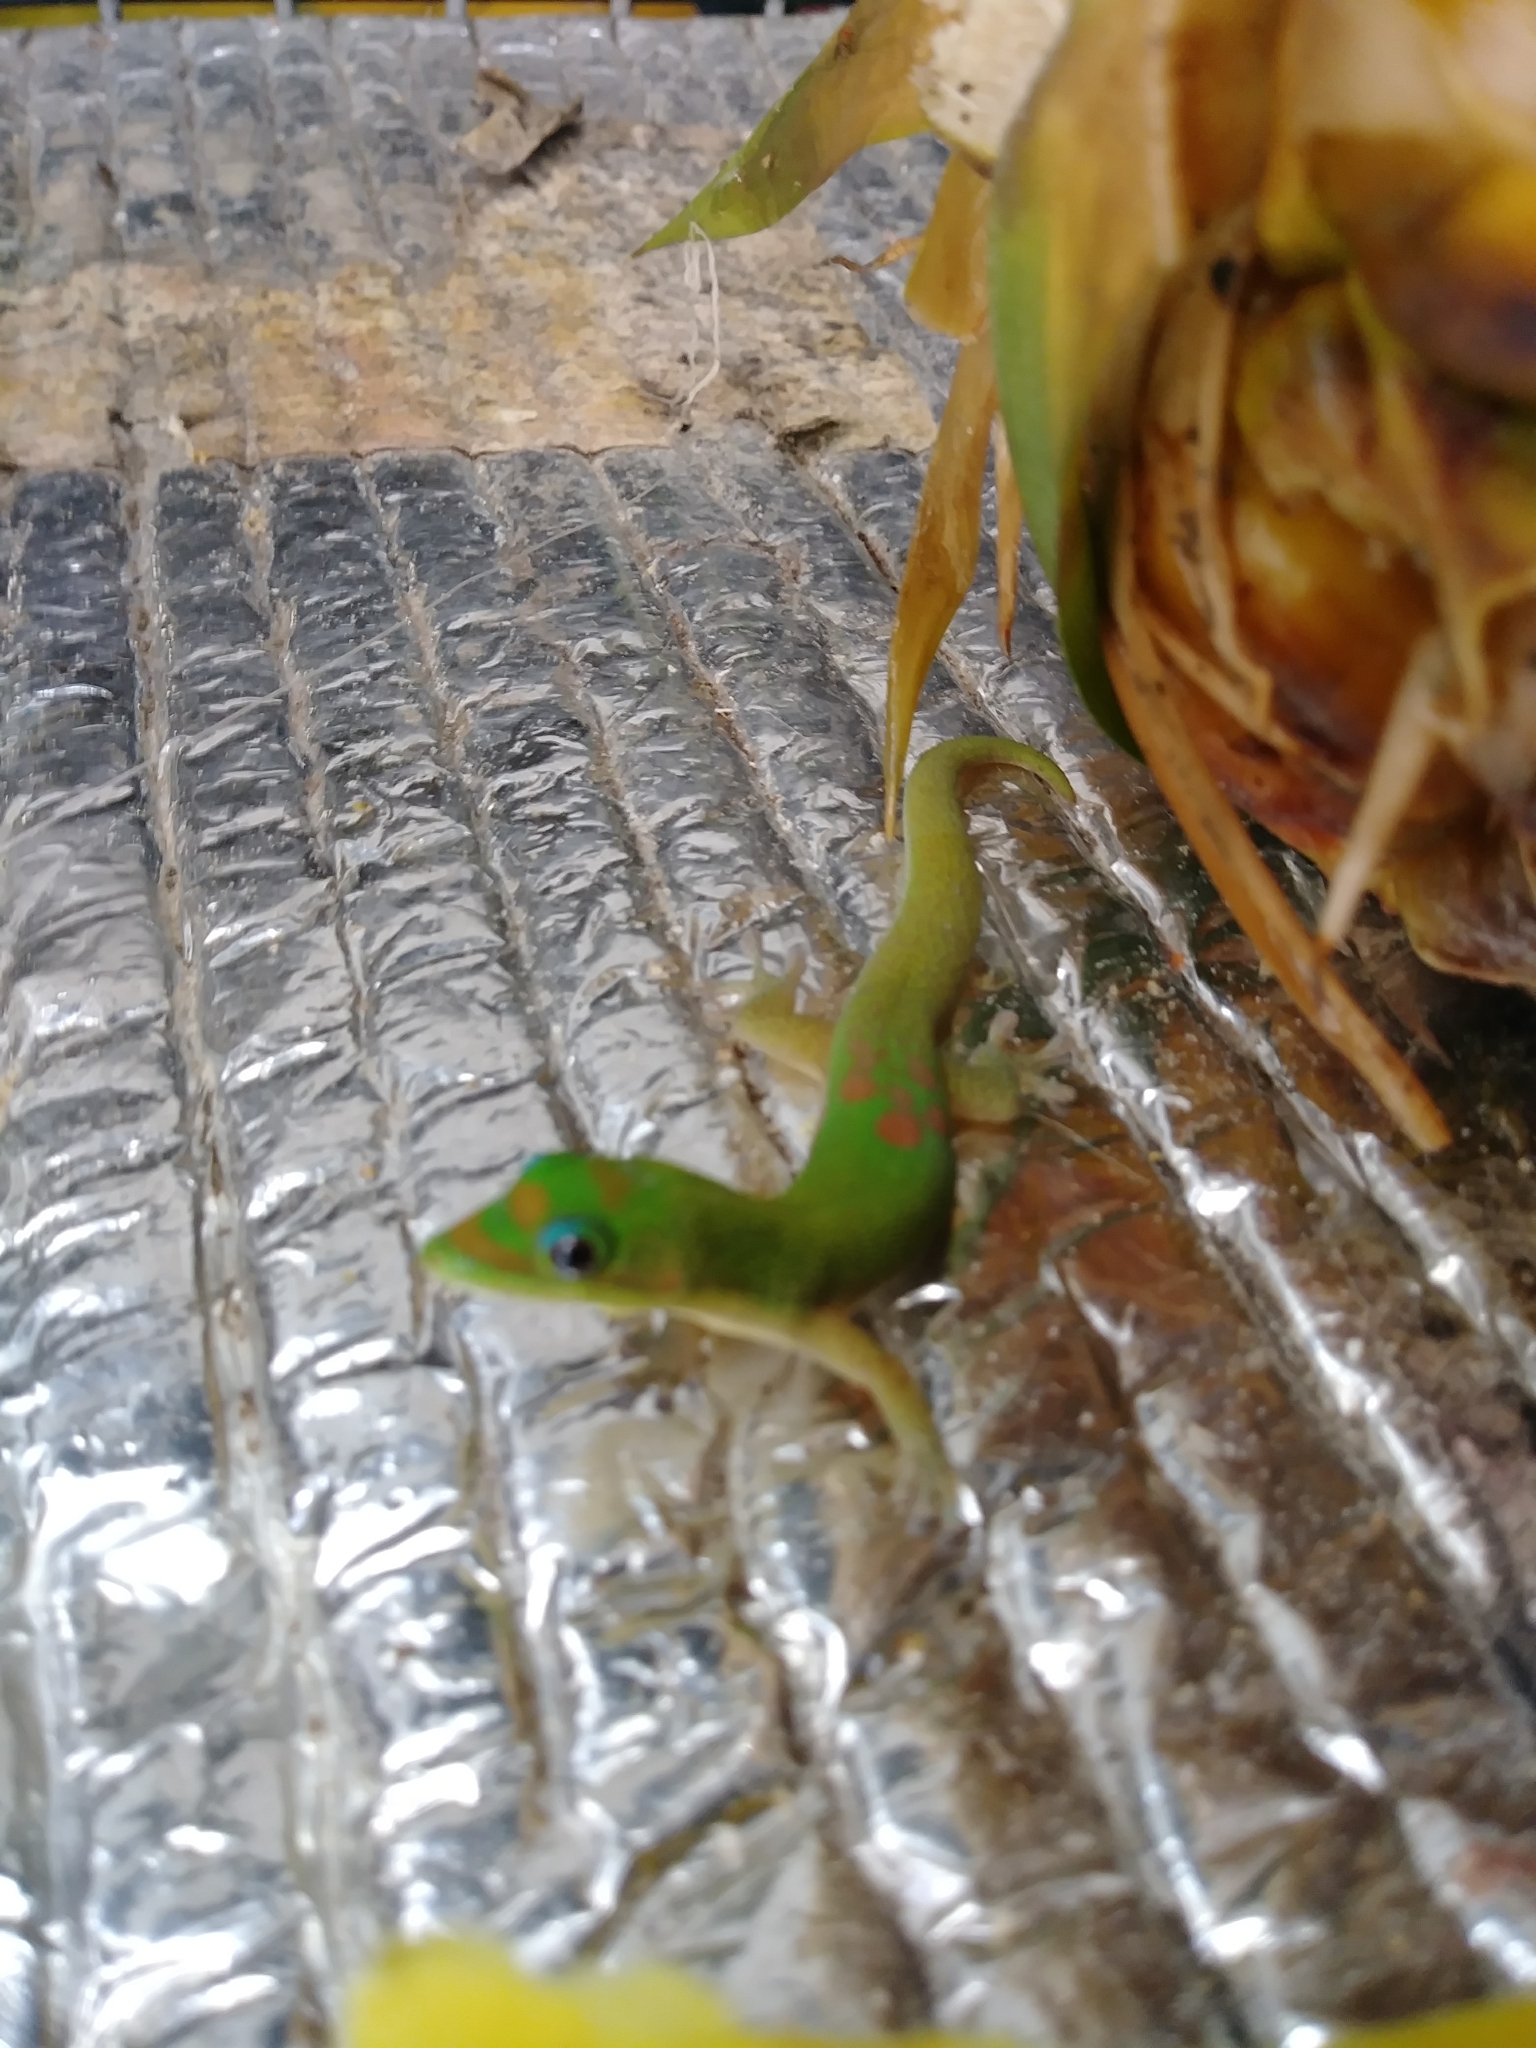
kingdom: Animalia
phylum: Chordata
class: Squamata
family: Gekkonidae
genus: Phelsuma
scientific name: Phelsuma laticauda
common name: Gold dust day gecko
